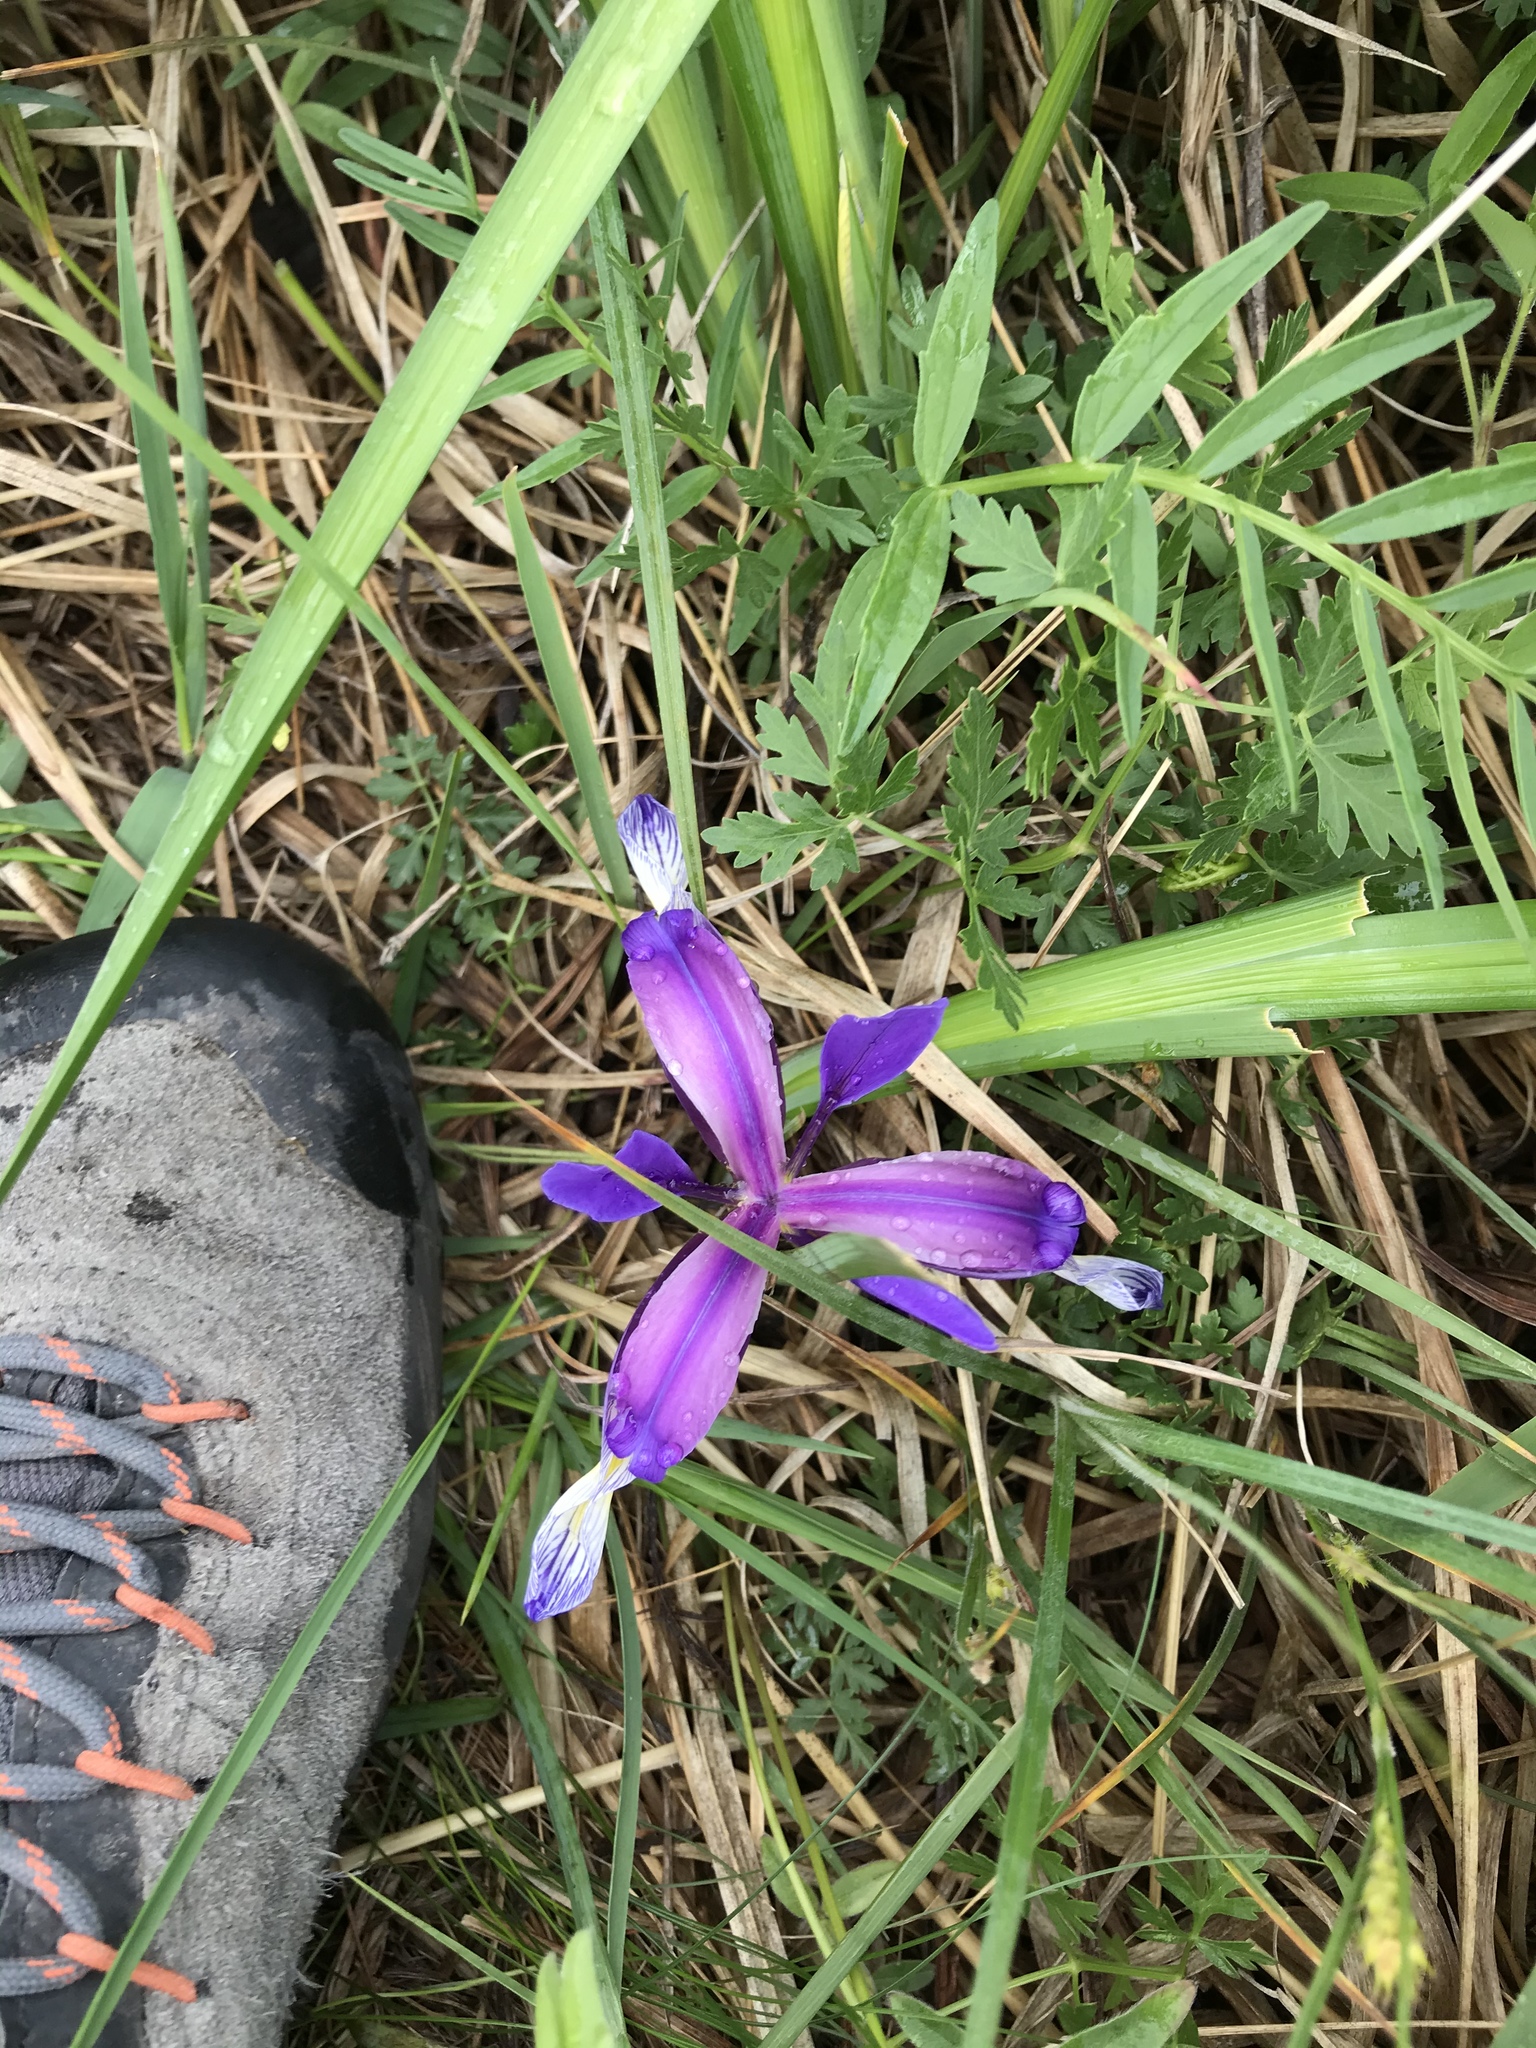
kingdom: Plantae
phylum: Tracheophyta
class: Liliopsida
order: Asparagales
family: Iridaceae
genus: Iris
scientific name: Iris graminea
